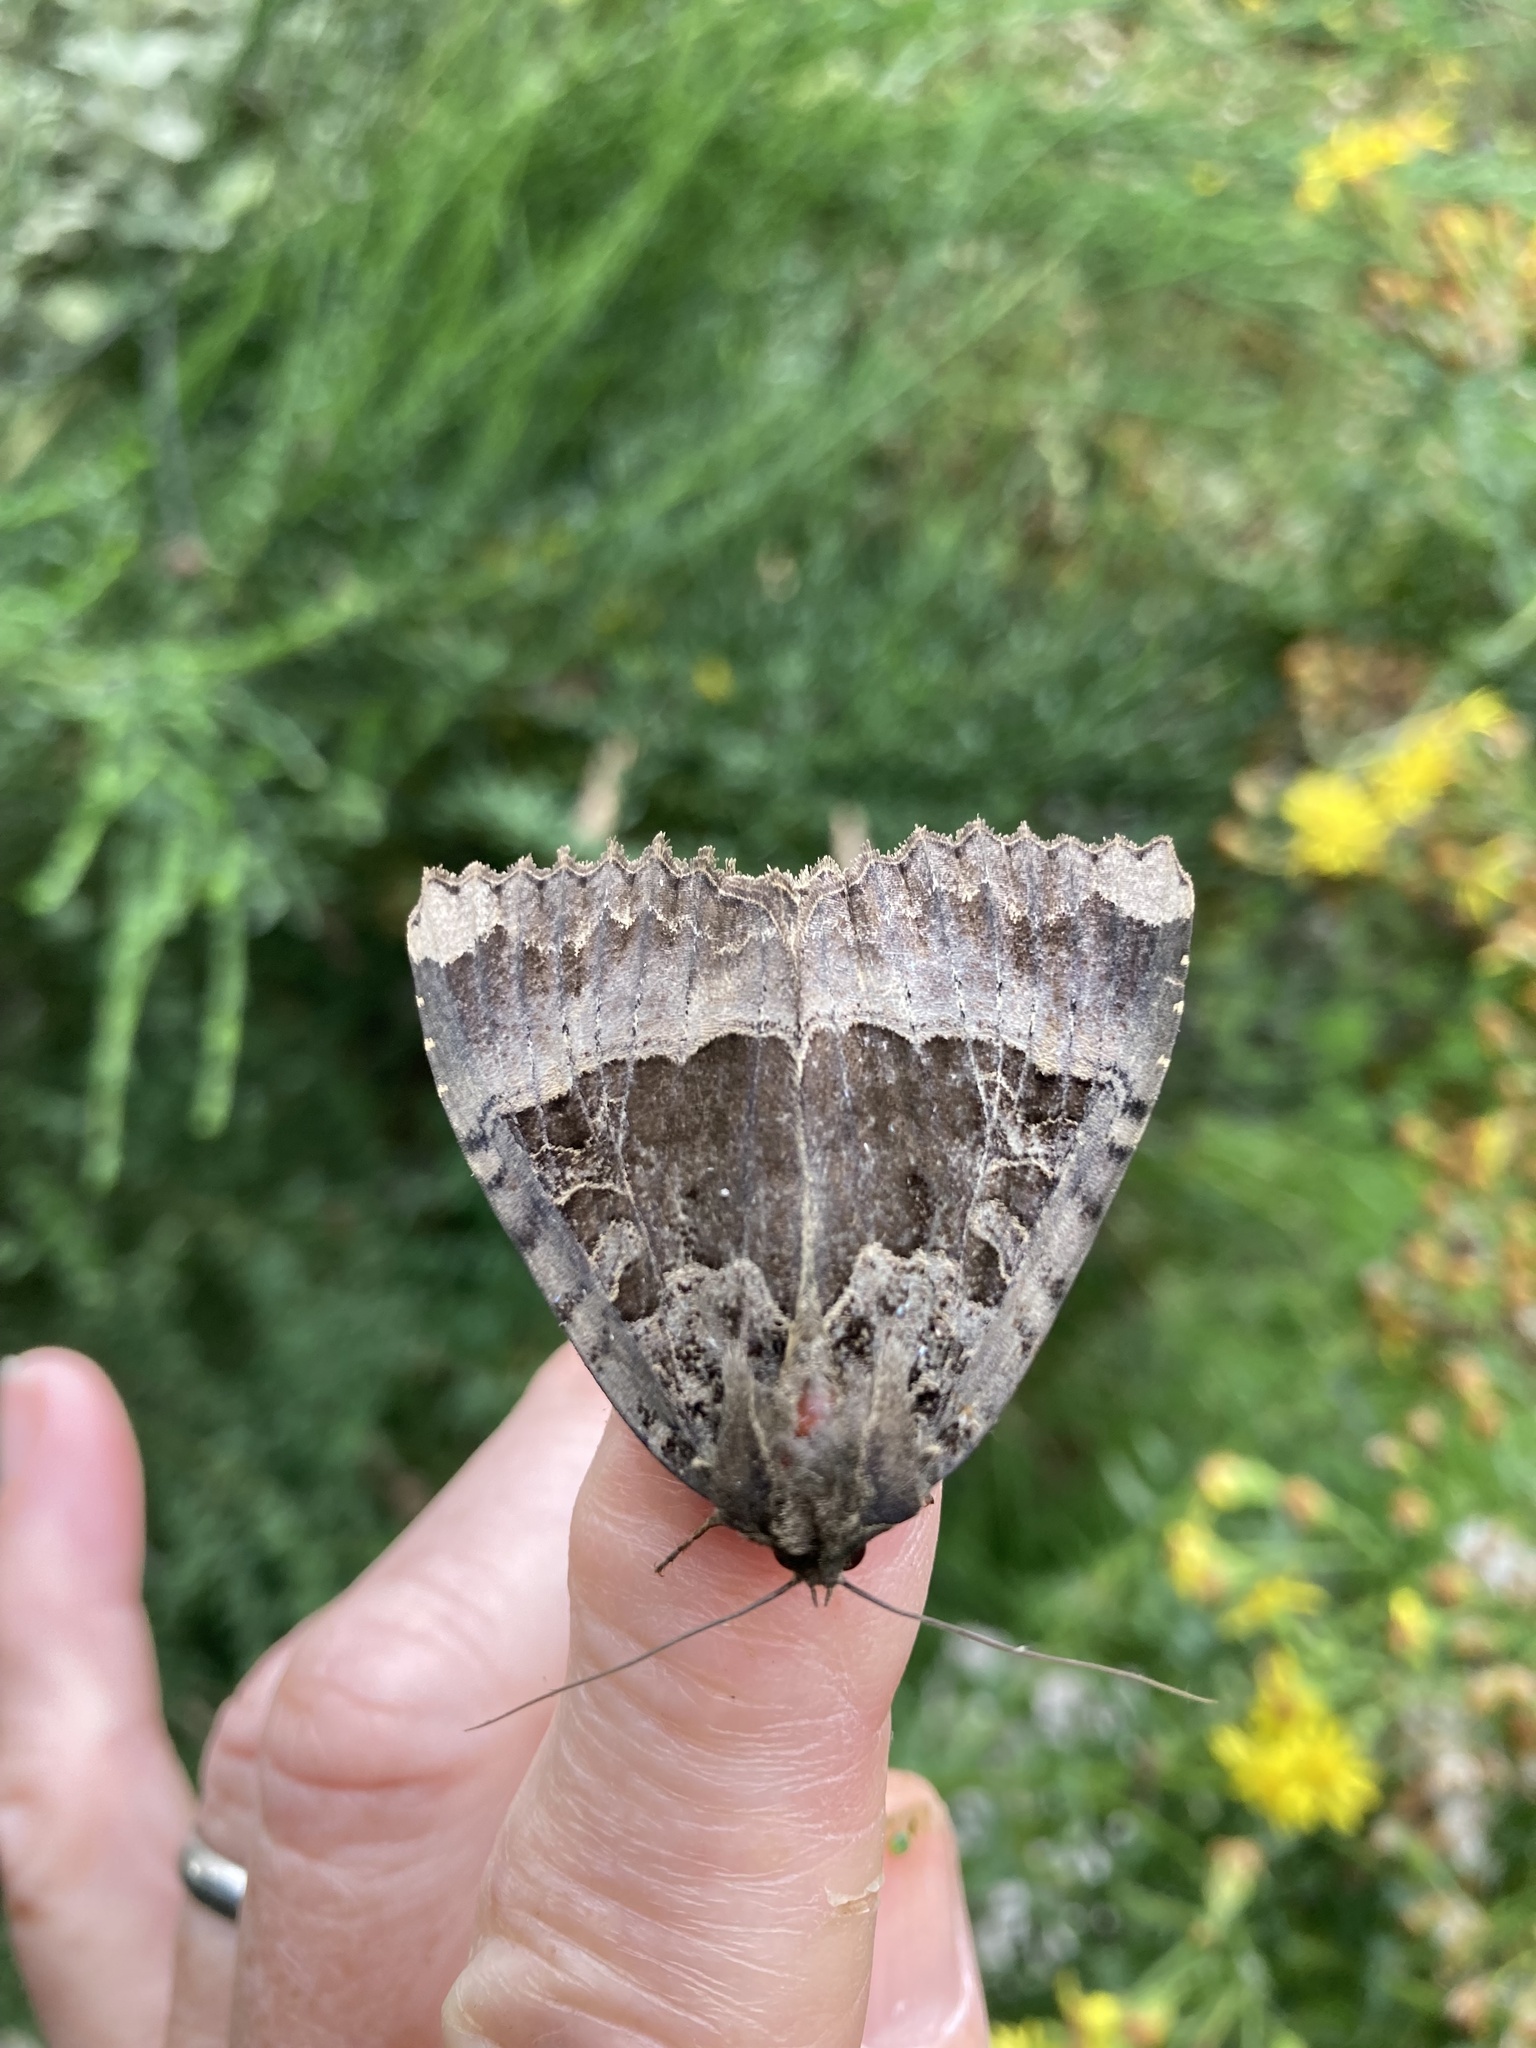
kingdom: Animalia
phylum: Arthropoda
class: Insecta
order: Lepidoptera
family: Noctuidae
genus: Mormo
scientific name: Mormo maura
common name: Old lady
